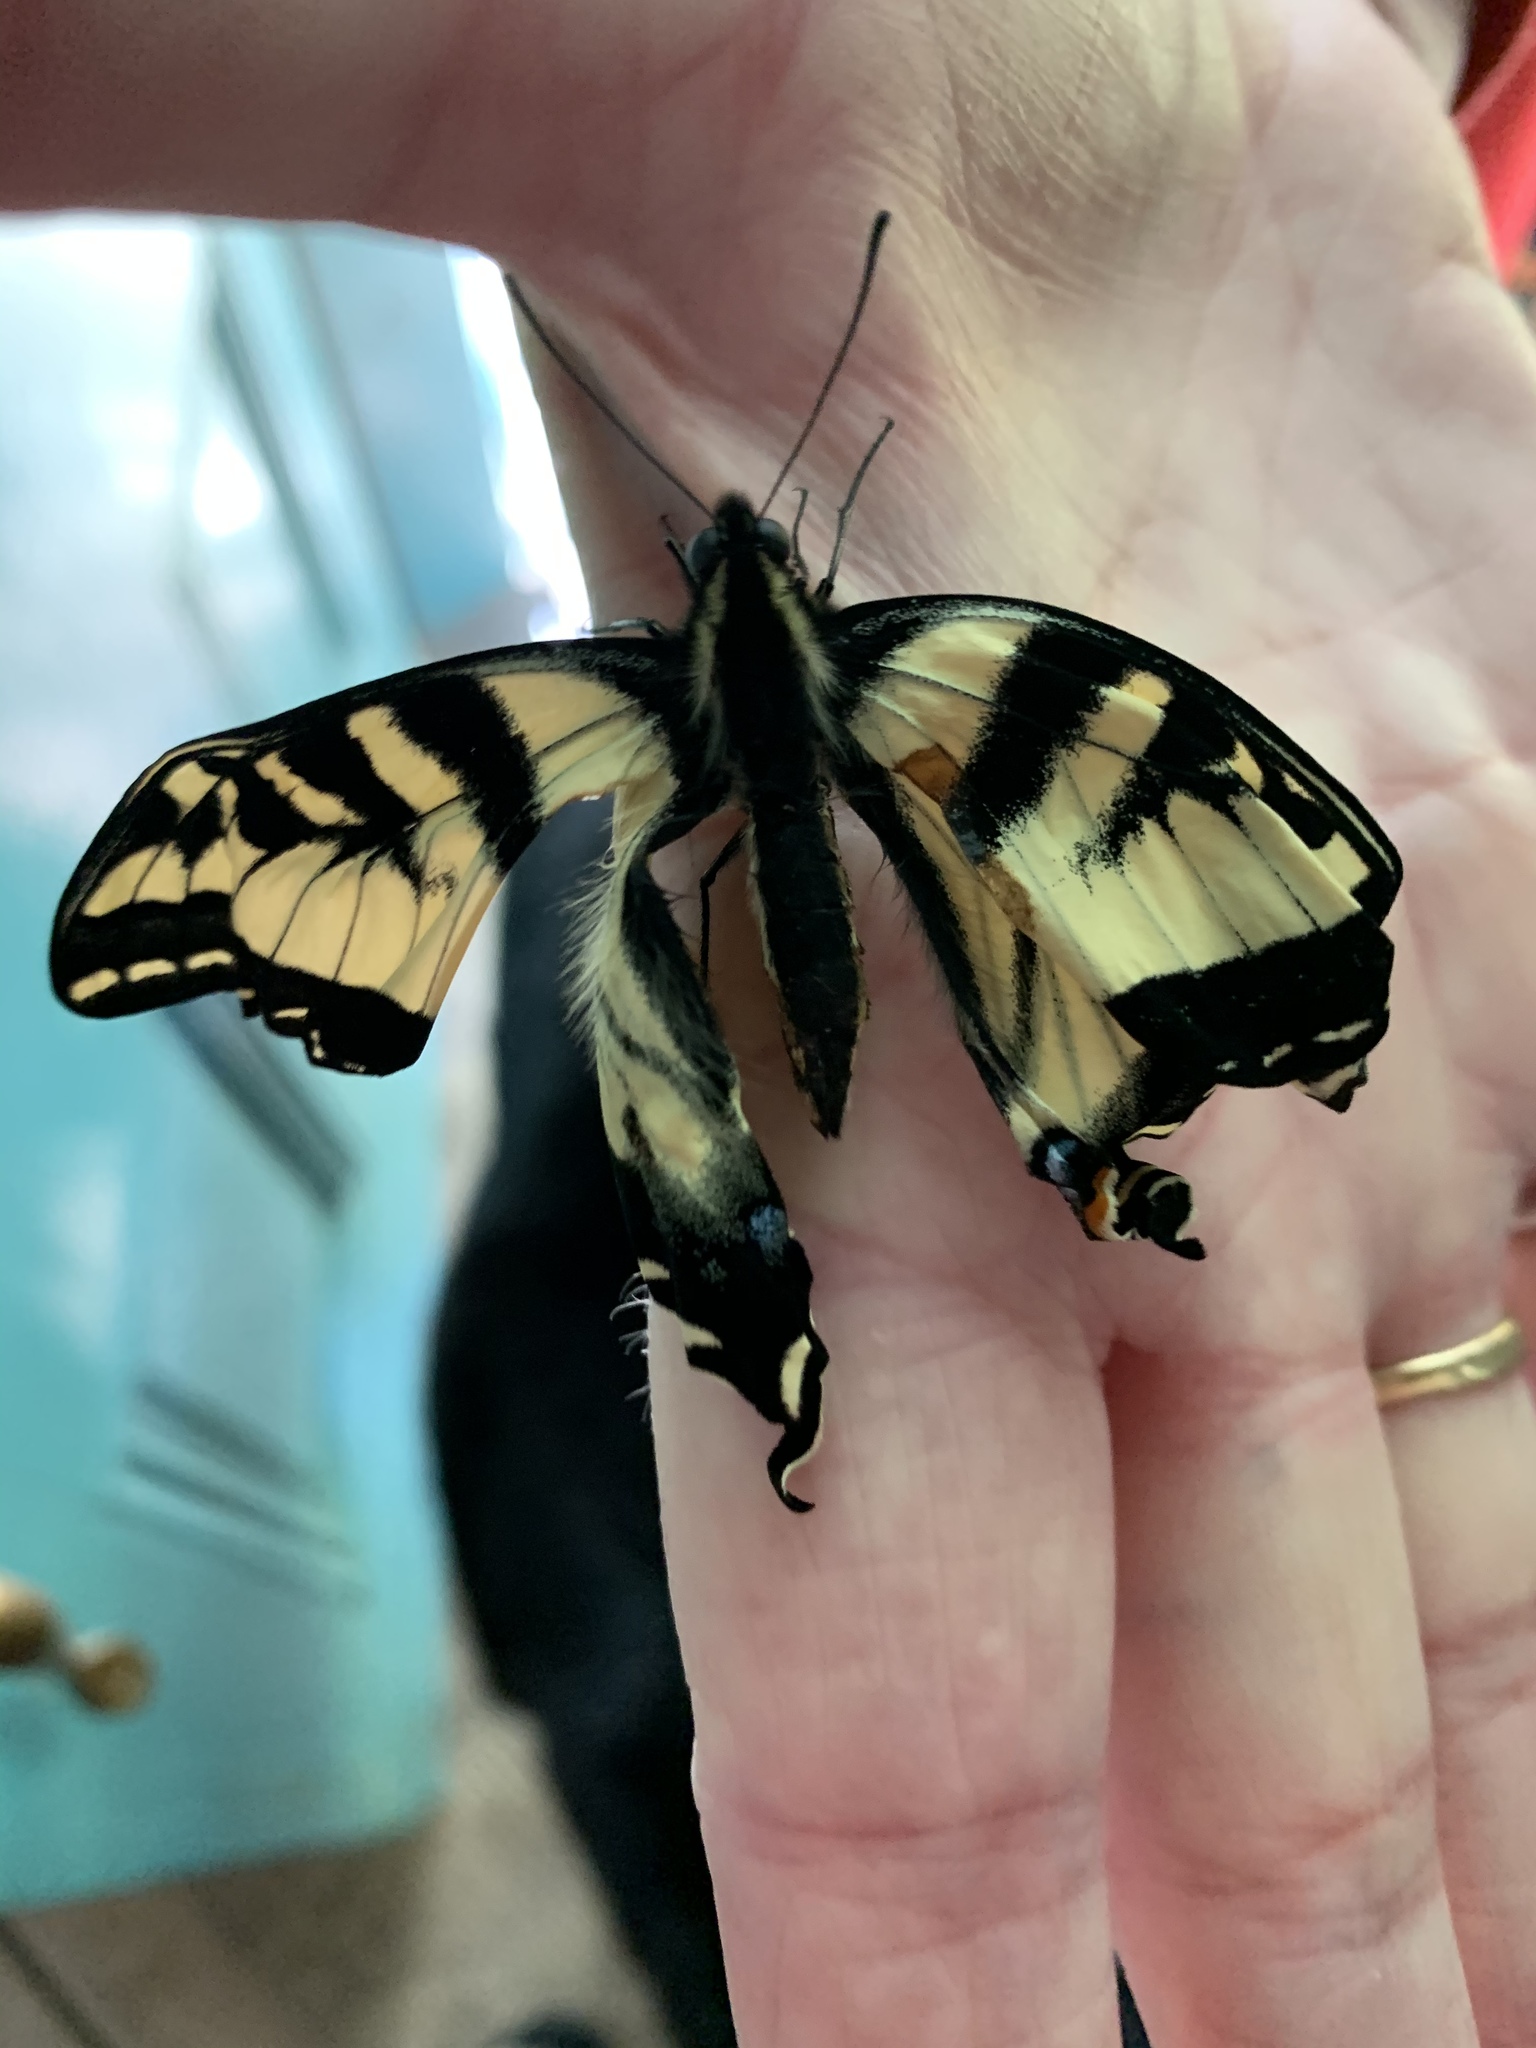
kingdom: Animalia
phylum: Arthropoda
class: Insecta
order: Lepidoptera
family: Papilionidae
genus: Papilio
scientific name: Papilio rutulus
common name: Western tiger swallowtail
